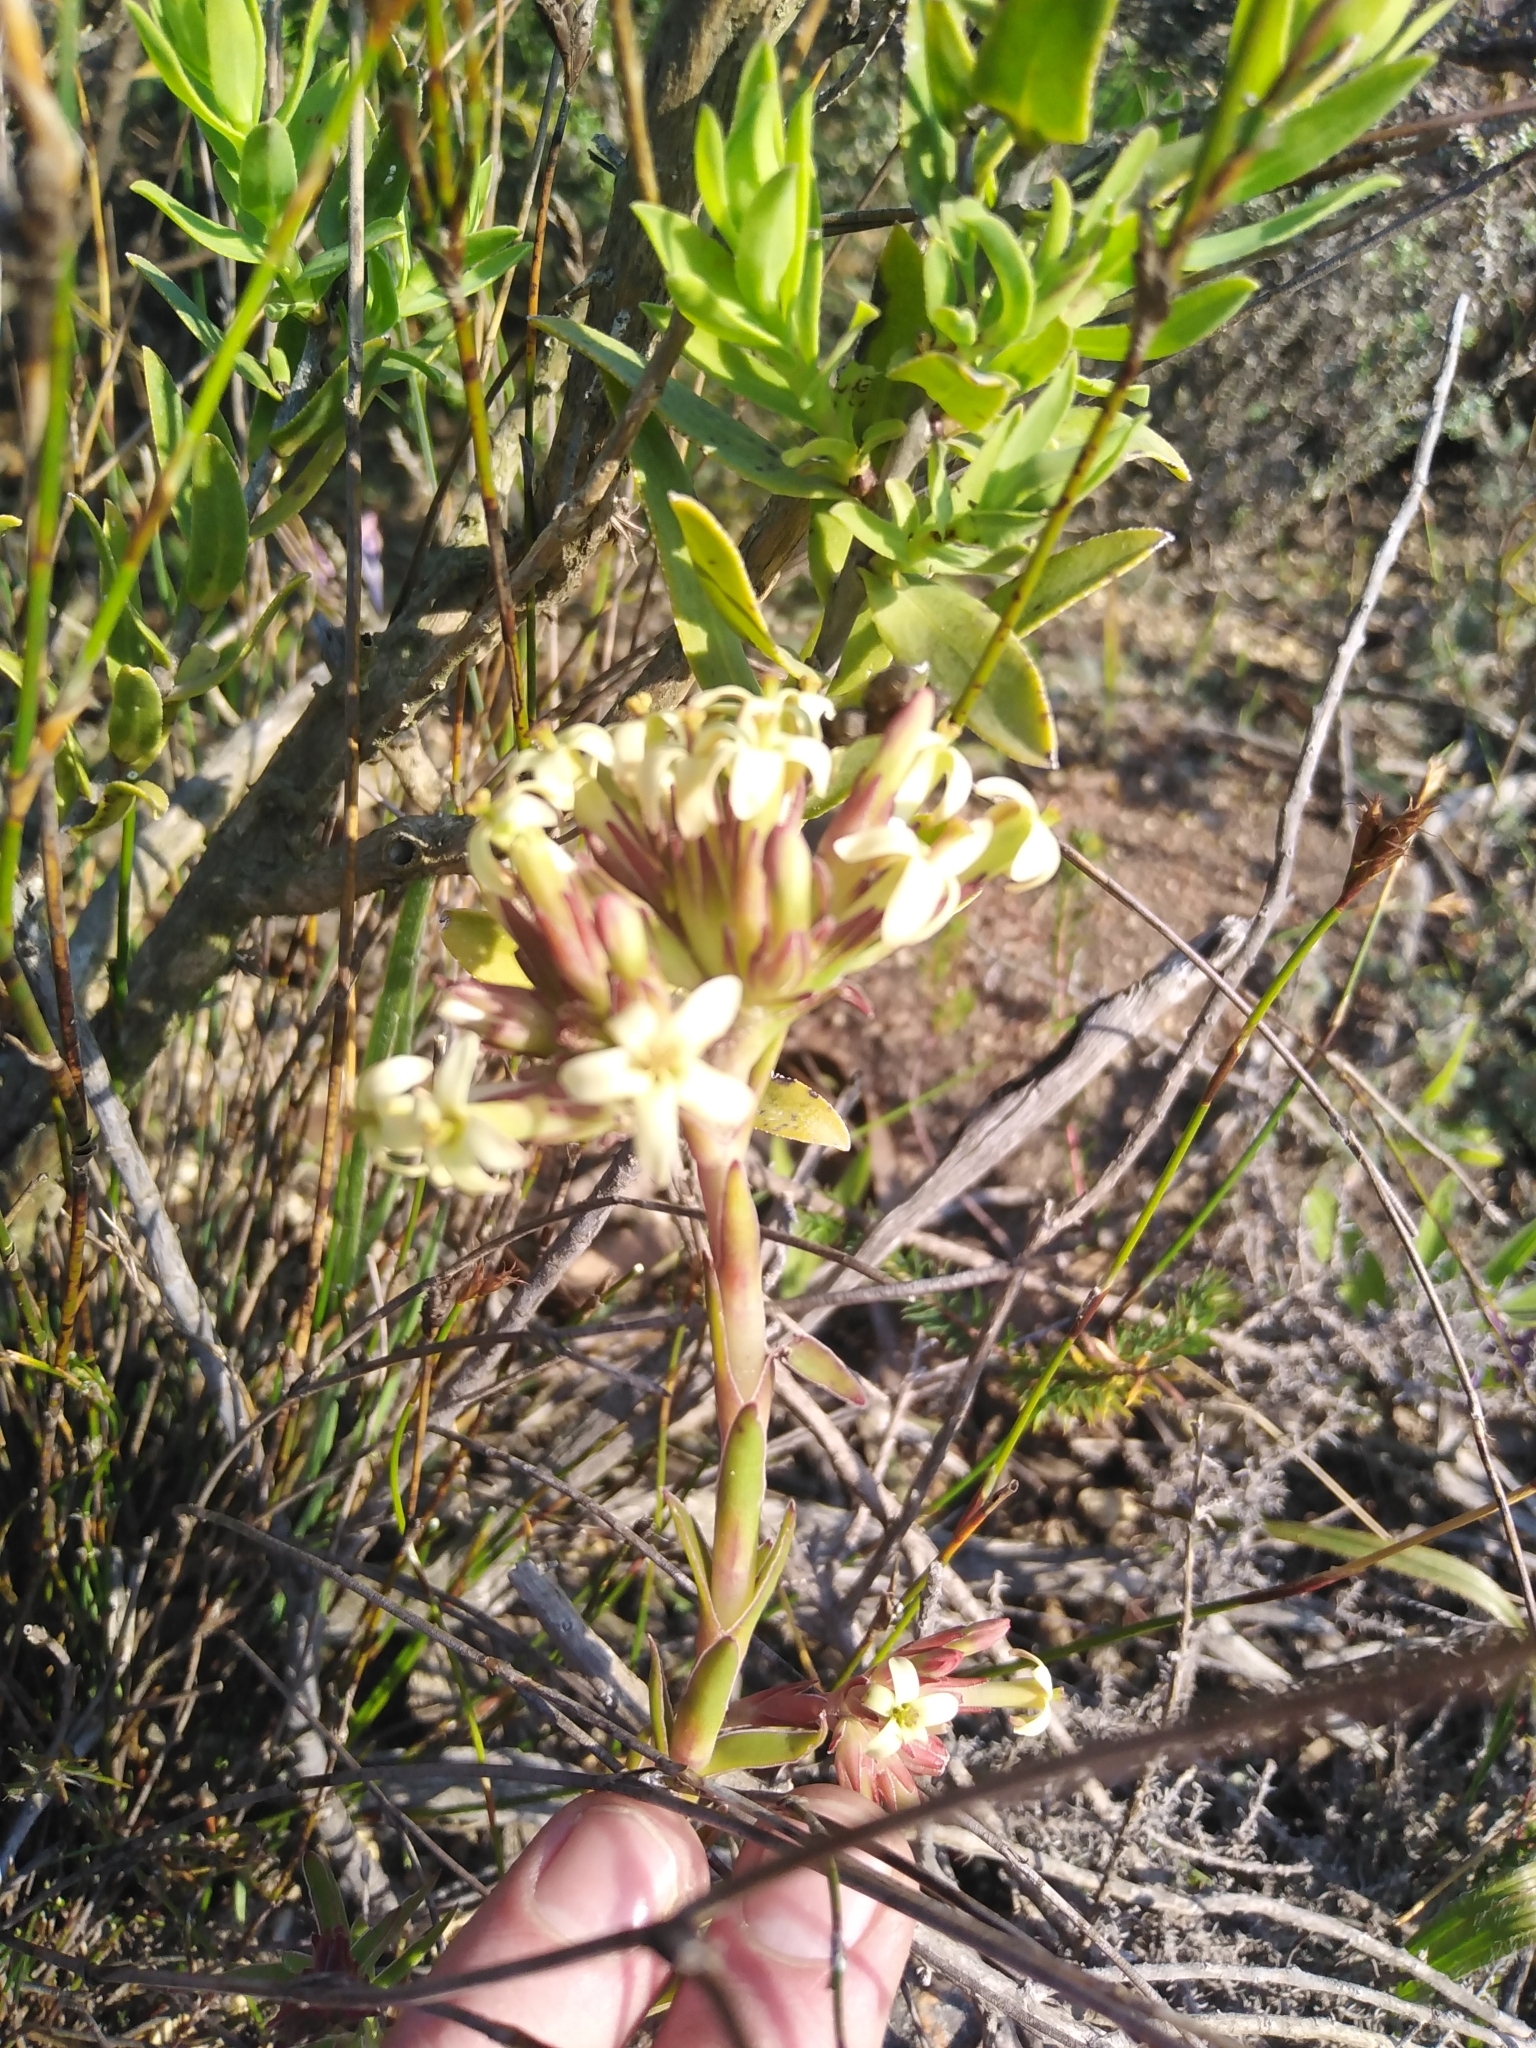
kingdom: Plantae
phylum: Tracheophyta
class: Magnoliopsida
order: Saxifragales
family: Crassulaceae
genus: Crassula
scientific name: Crassula fascicularis
